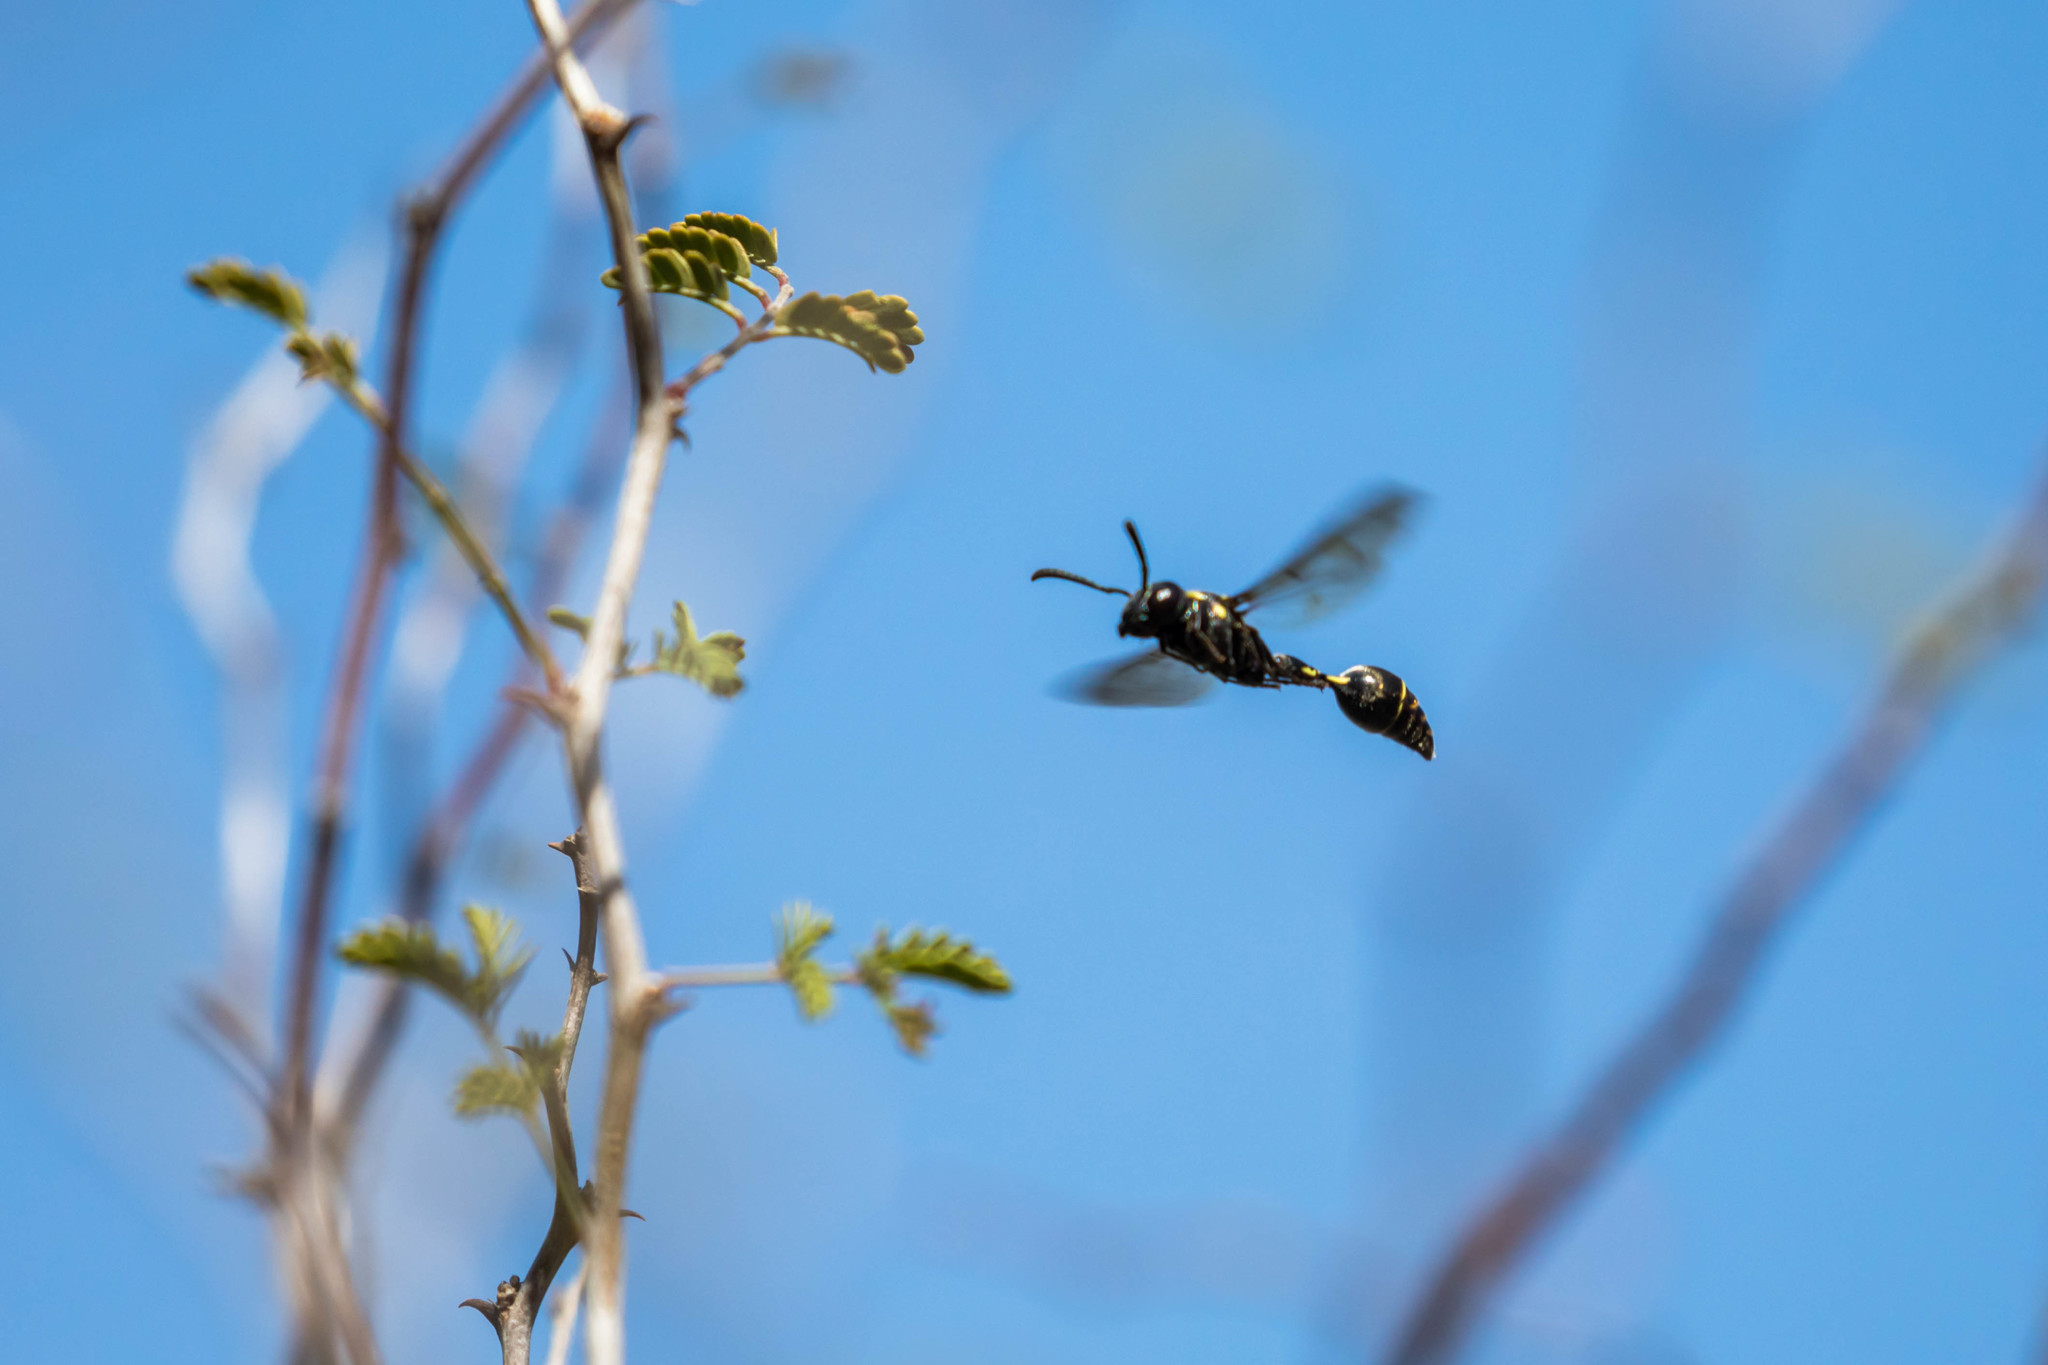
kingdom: Animalia
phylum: Arthropoda
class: Insecta
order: Hymenoptera
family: Eumenidae
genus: Zethus
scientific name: Zethus miscogaster
